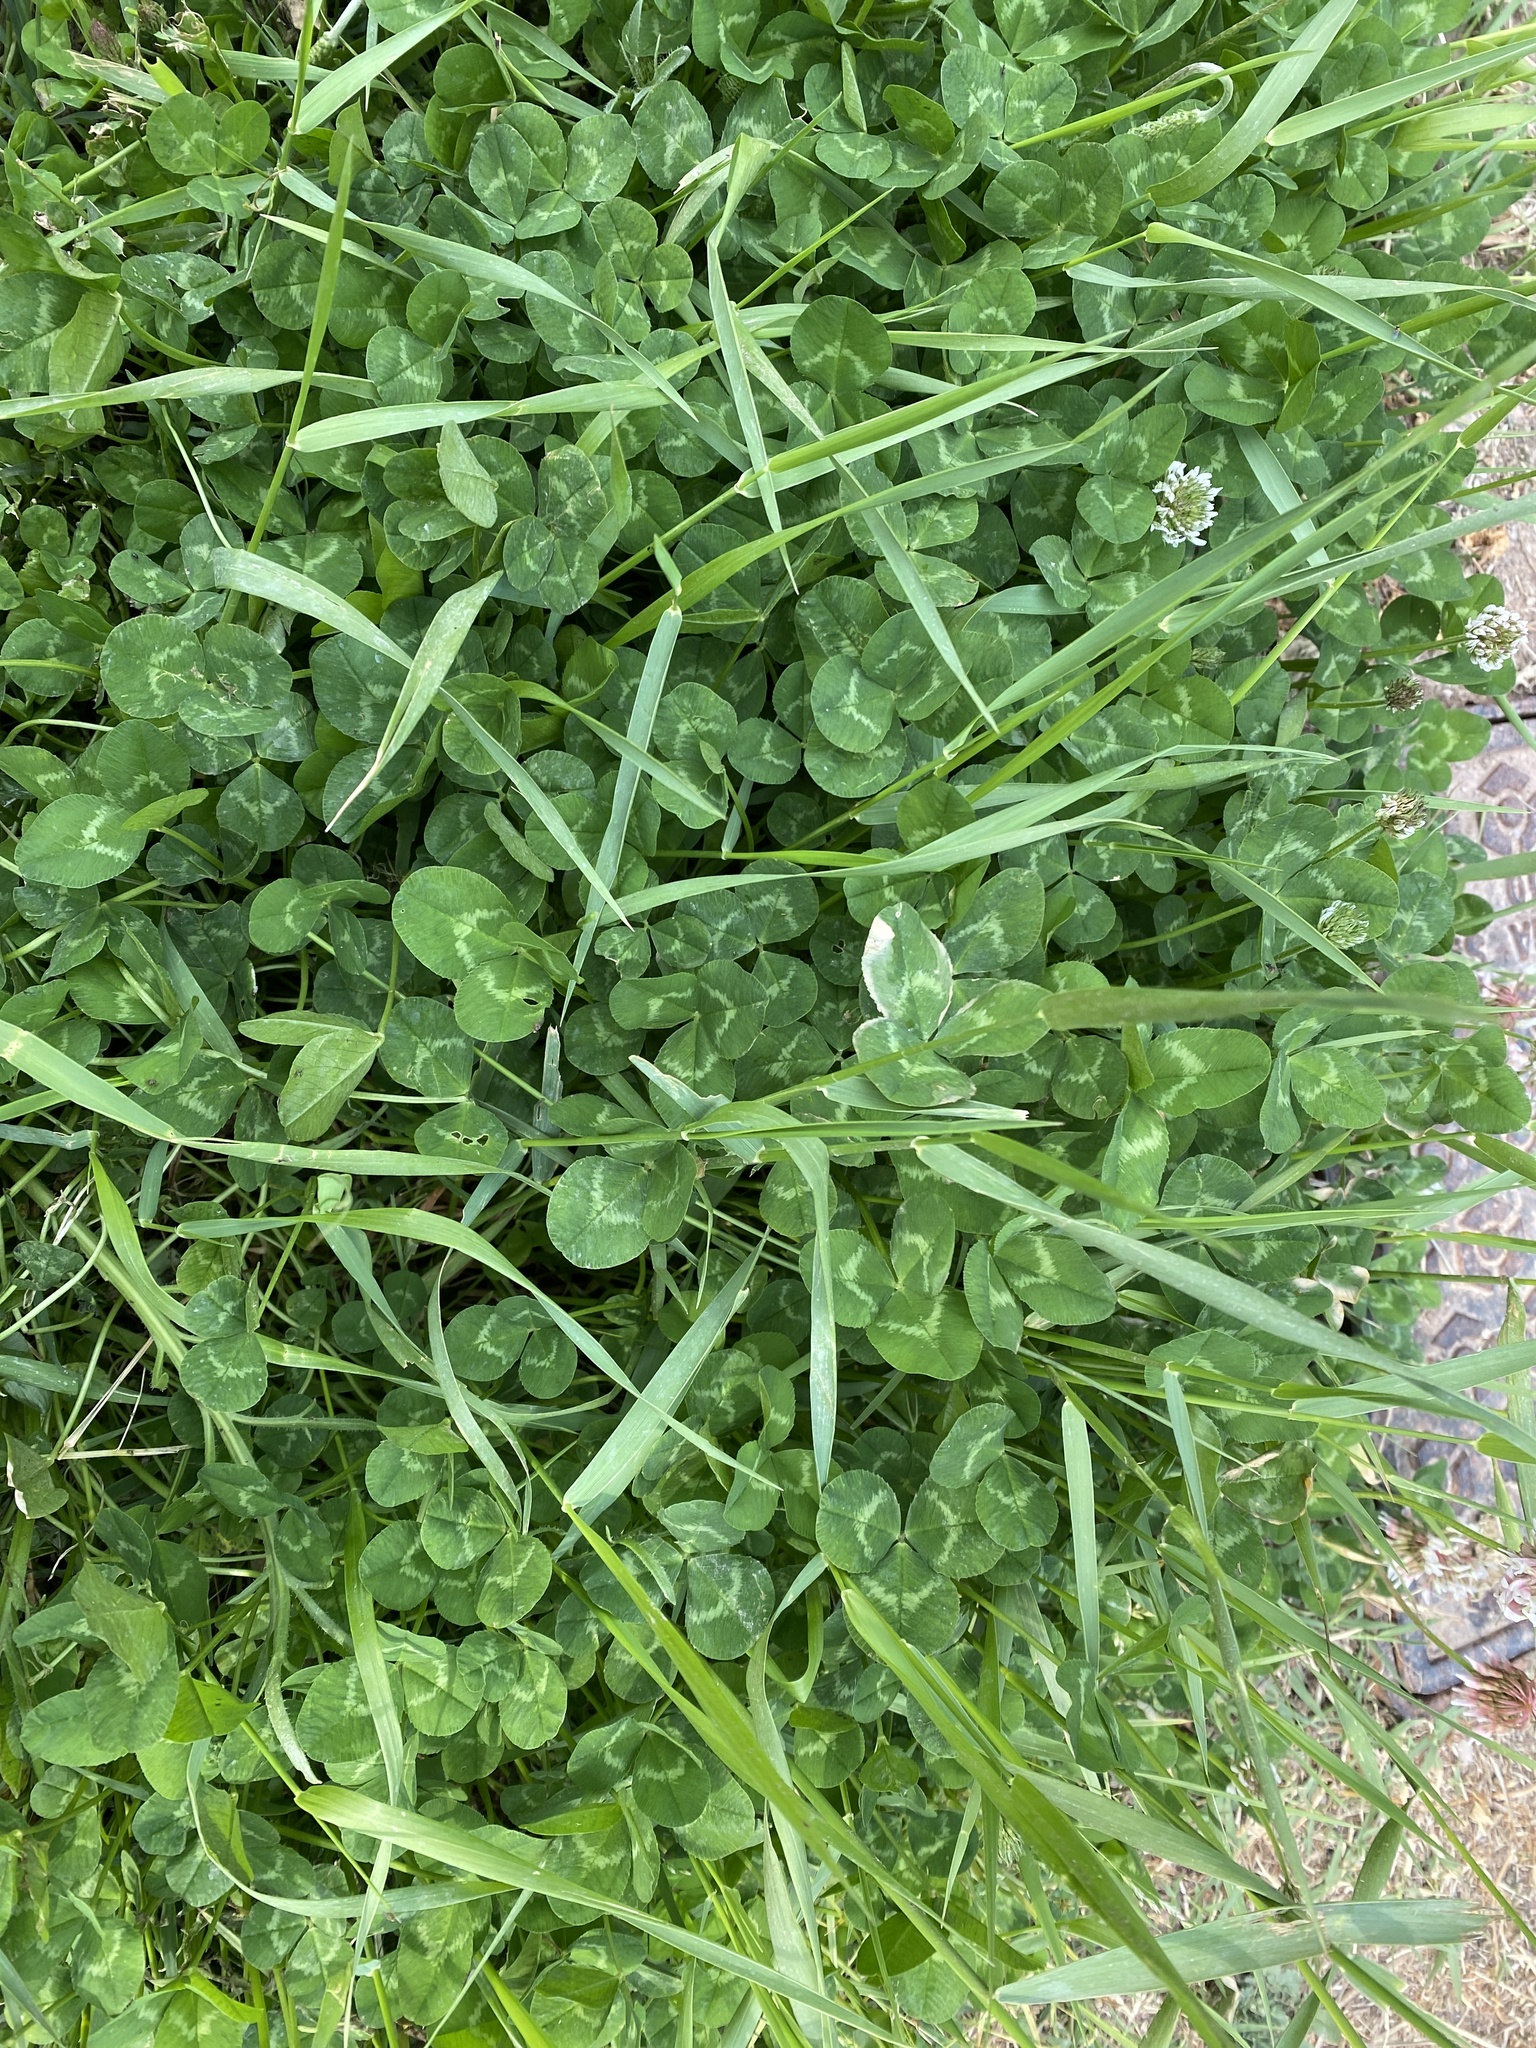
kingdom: Plantae
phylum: Tracheophyta
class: Magnoliopsida
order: Fabales
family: Fabaceae
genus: Trifolium
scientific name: Trifolium repens
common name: White clover
